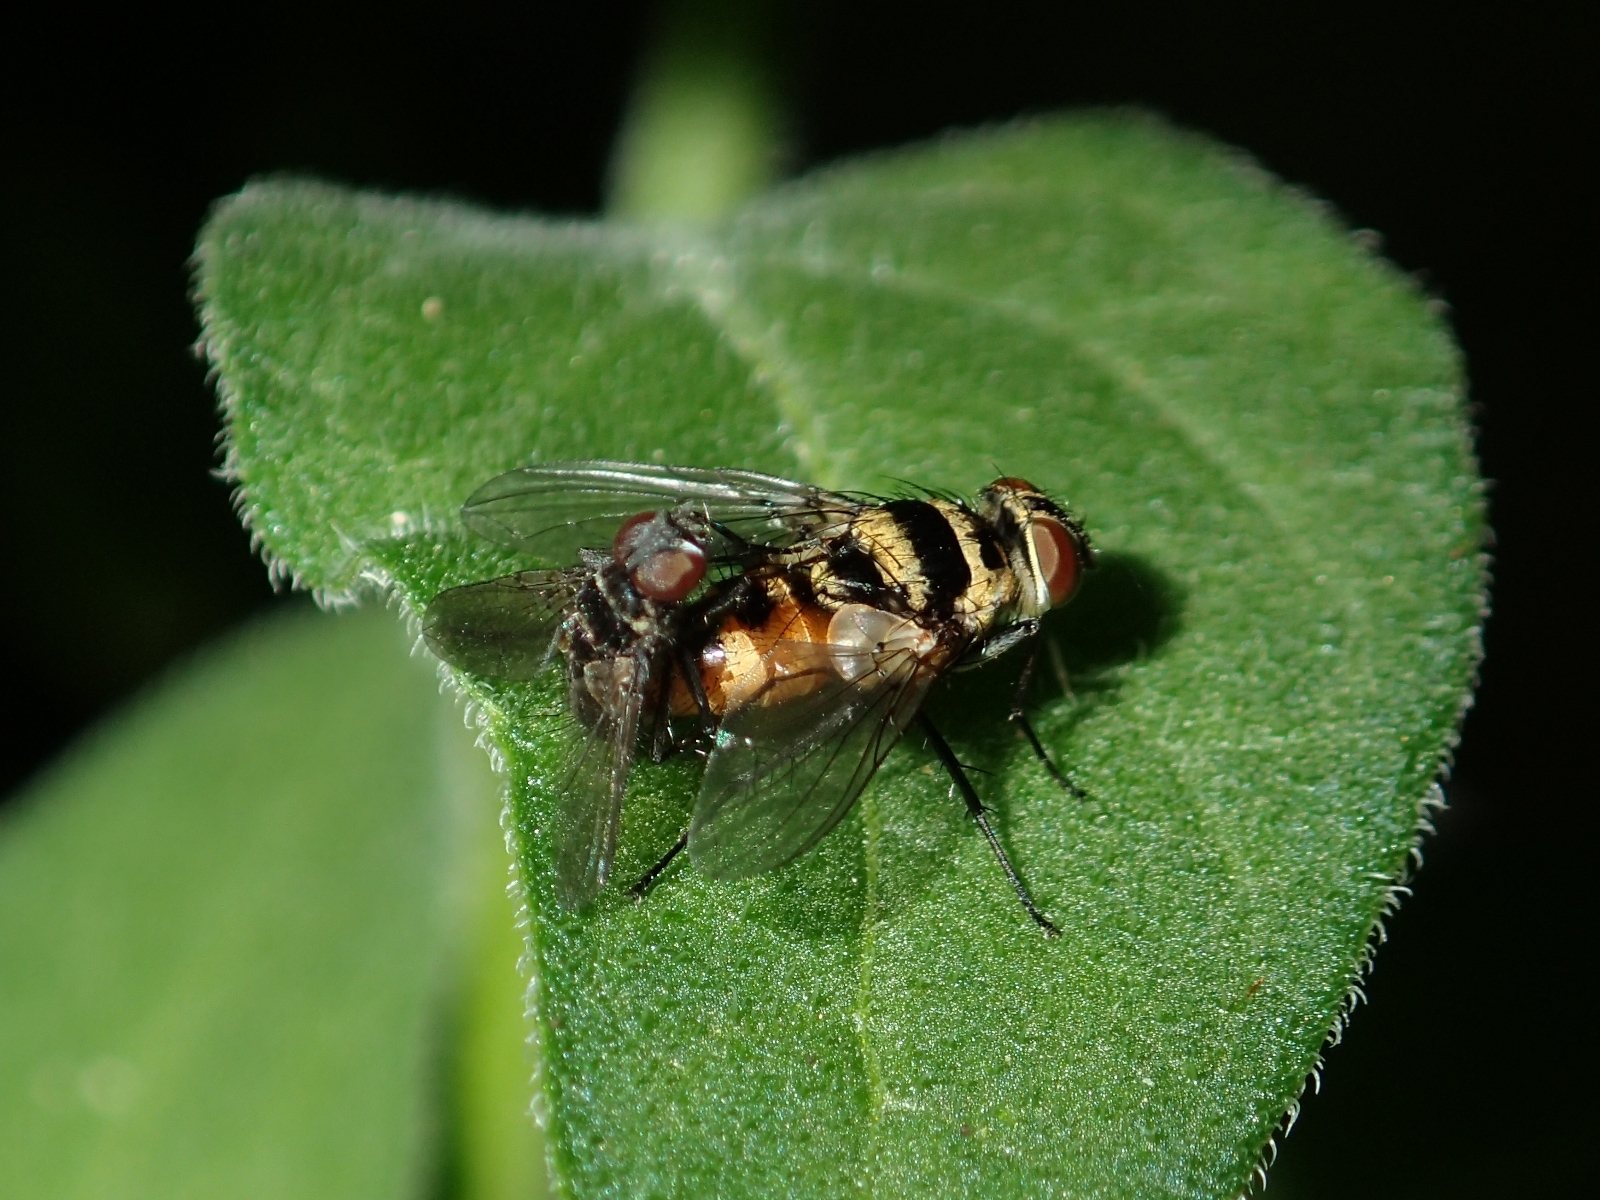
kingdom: Animalia
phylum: Arthropoda
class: Insecta
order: Diptera
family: Tachinidae
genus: Trigonospila
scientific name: Trigonospila brevifacies
